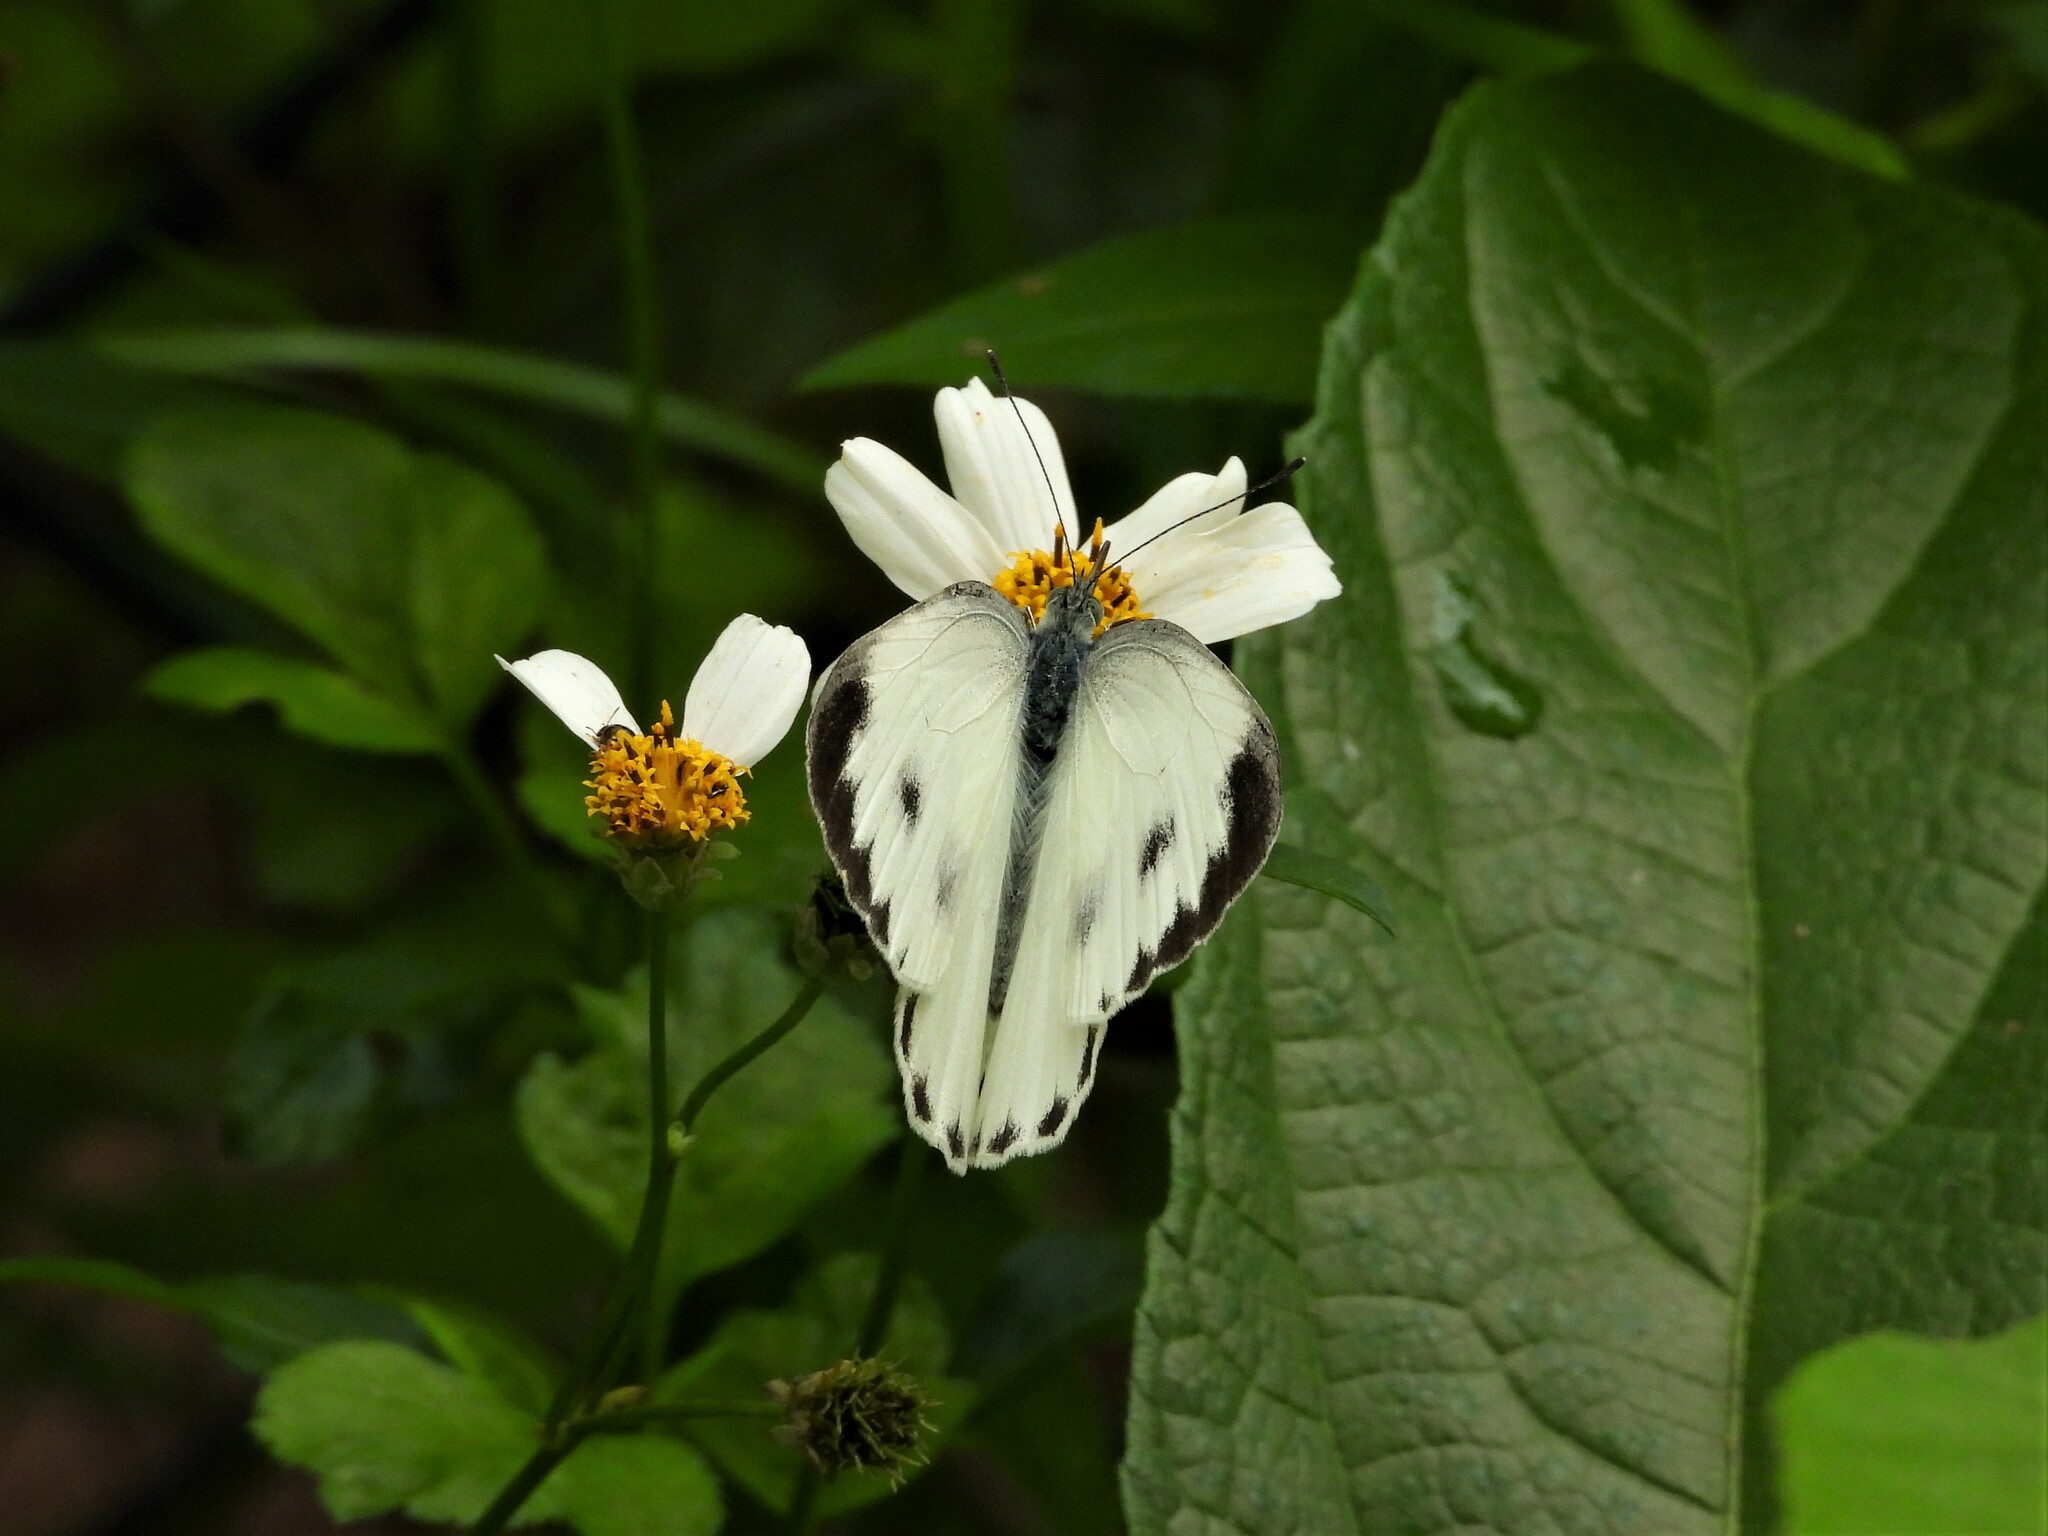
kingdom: Animalia
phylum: Arthropoda
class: Insecta
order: Lepidoptera
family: Pieridae
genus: Pieris
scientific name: Pieris canidia
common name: Indian cabbage white
